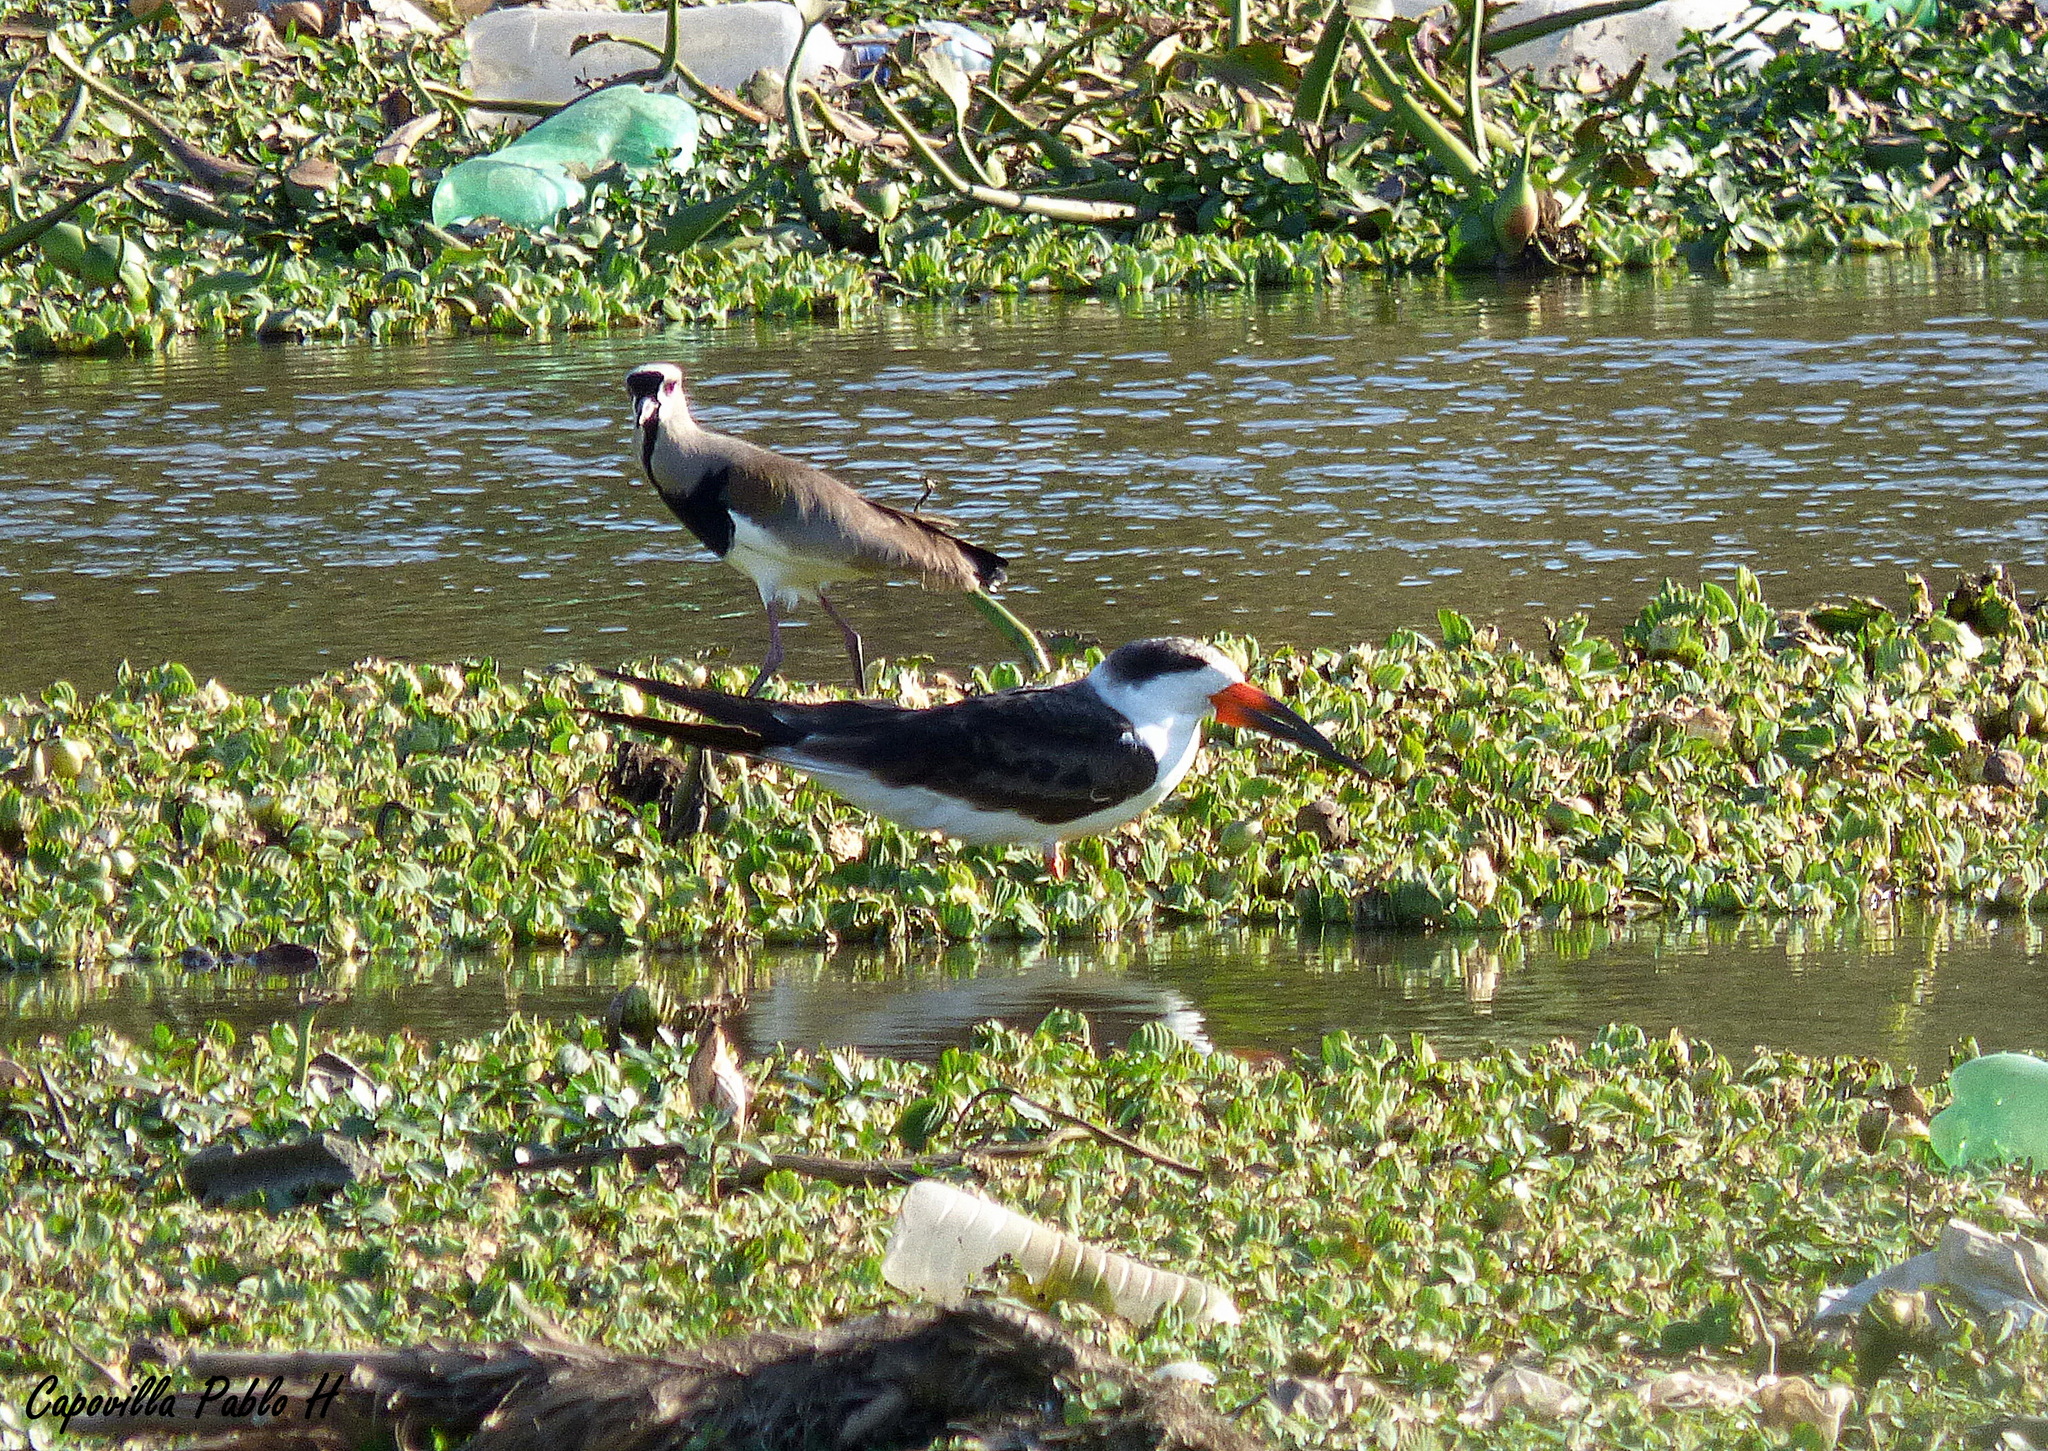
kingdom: Animalia
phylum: Chordata
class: Aves
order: Charadriiformes
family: Laridae
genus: Rynchops
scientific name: Rynchops niger
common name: Black skimmer
